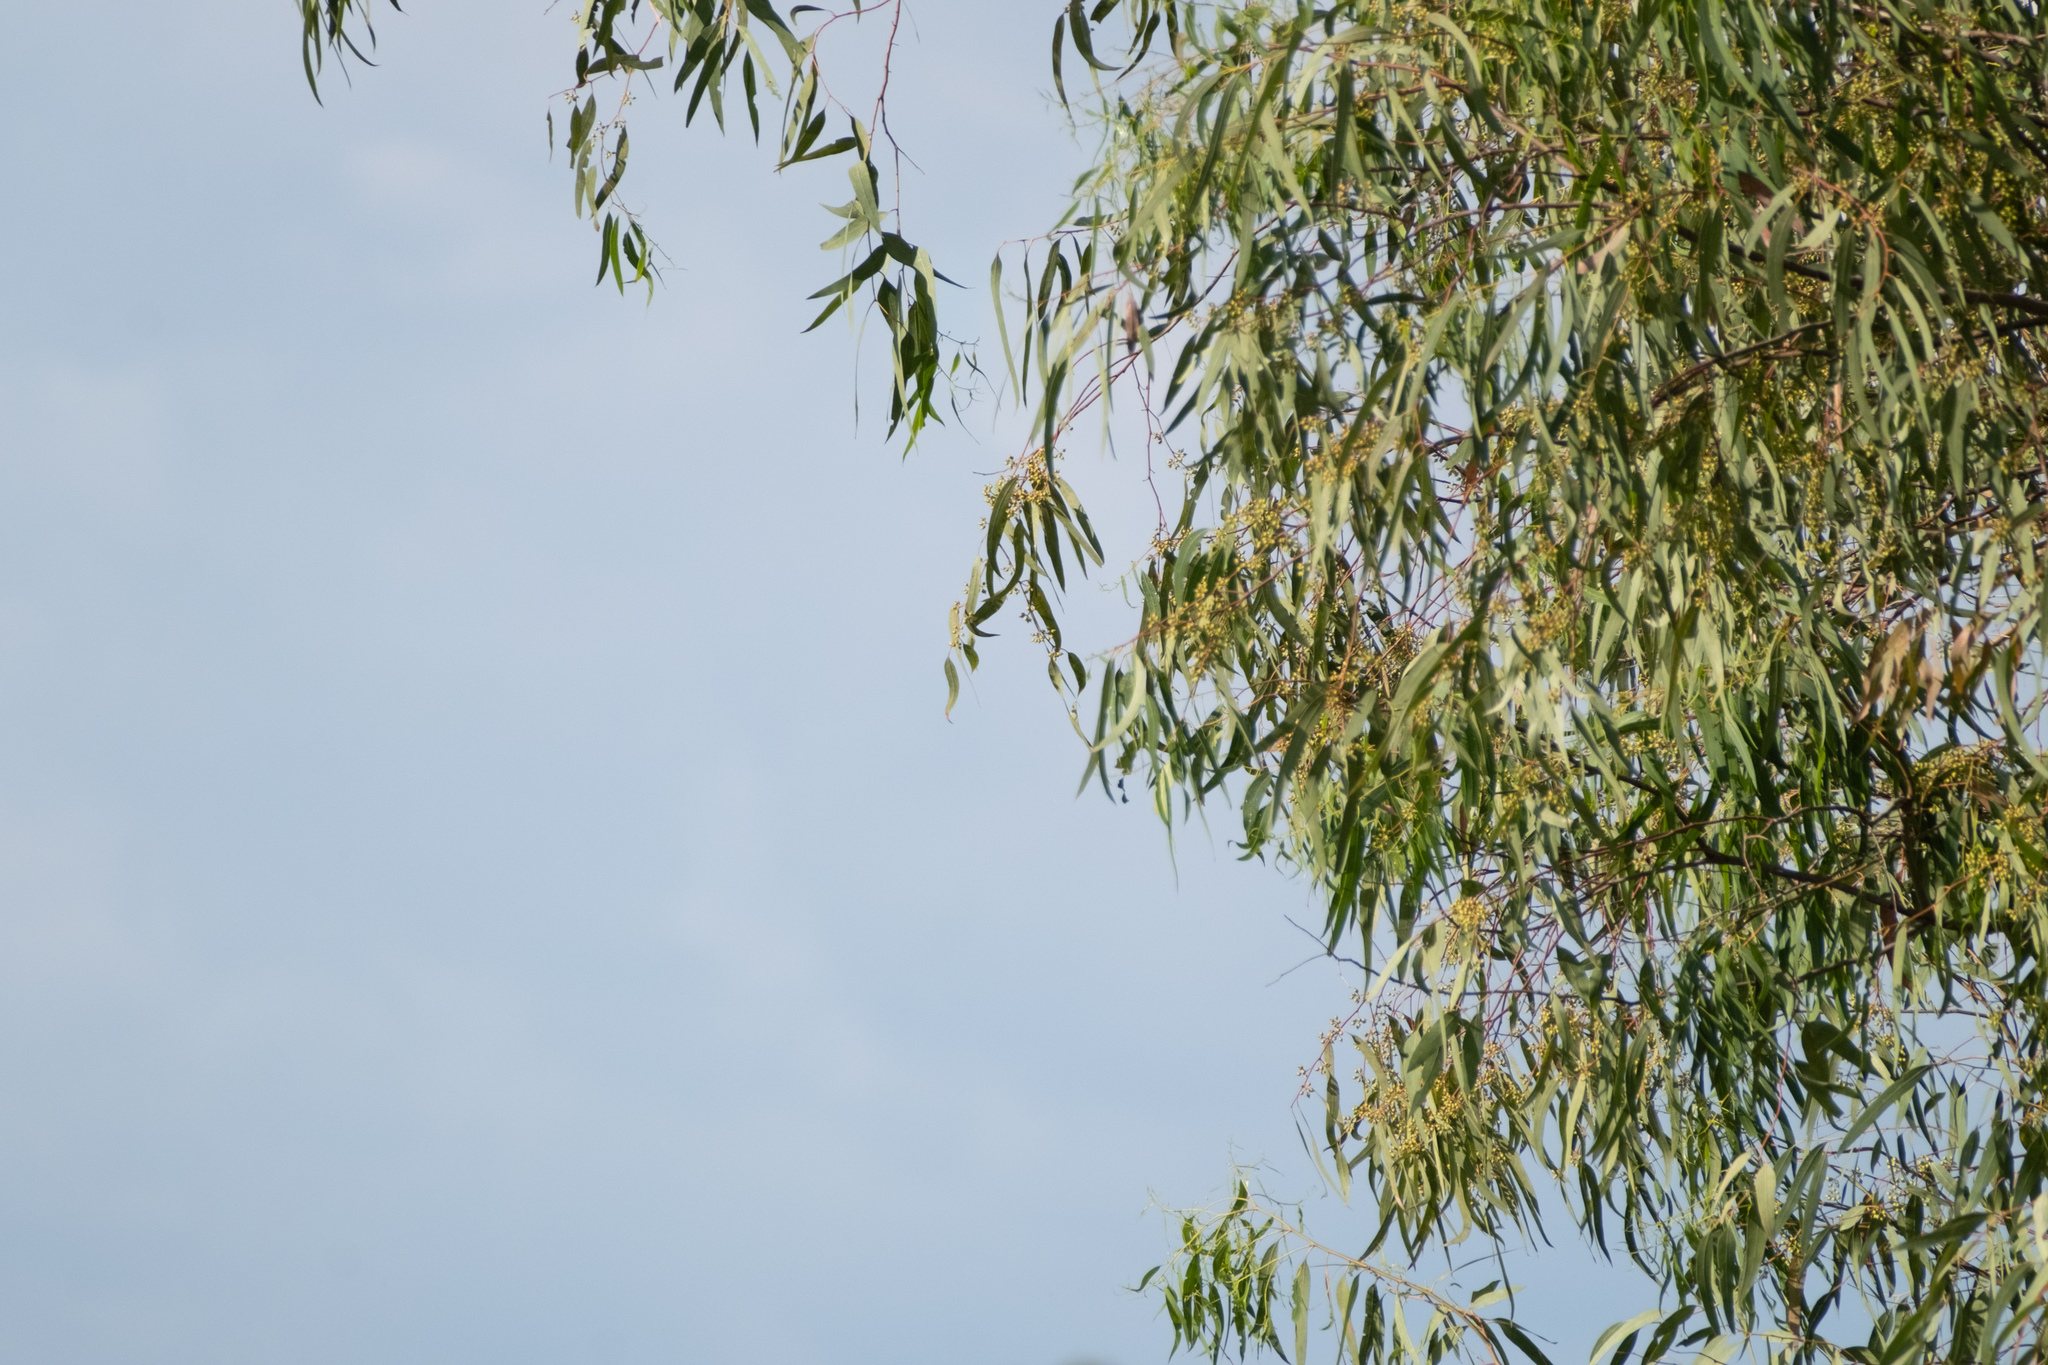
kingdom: Plantae
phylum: Tracheophyta
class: Magnoliopsida
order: Myrtales
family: Myrtaceae
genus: Eucalyptus
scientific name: Eucalyptus camaldulensis
